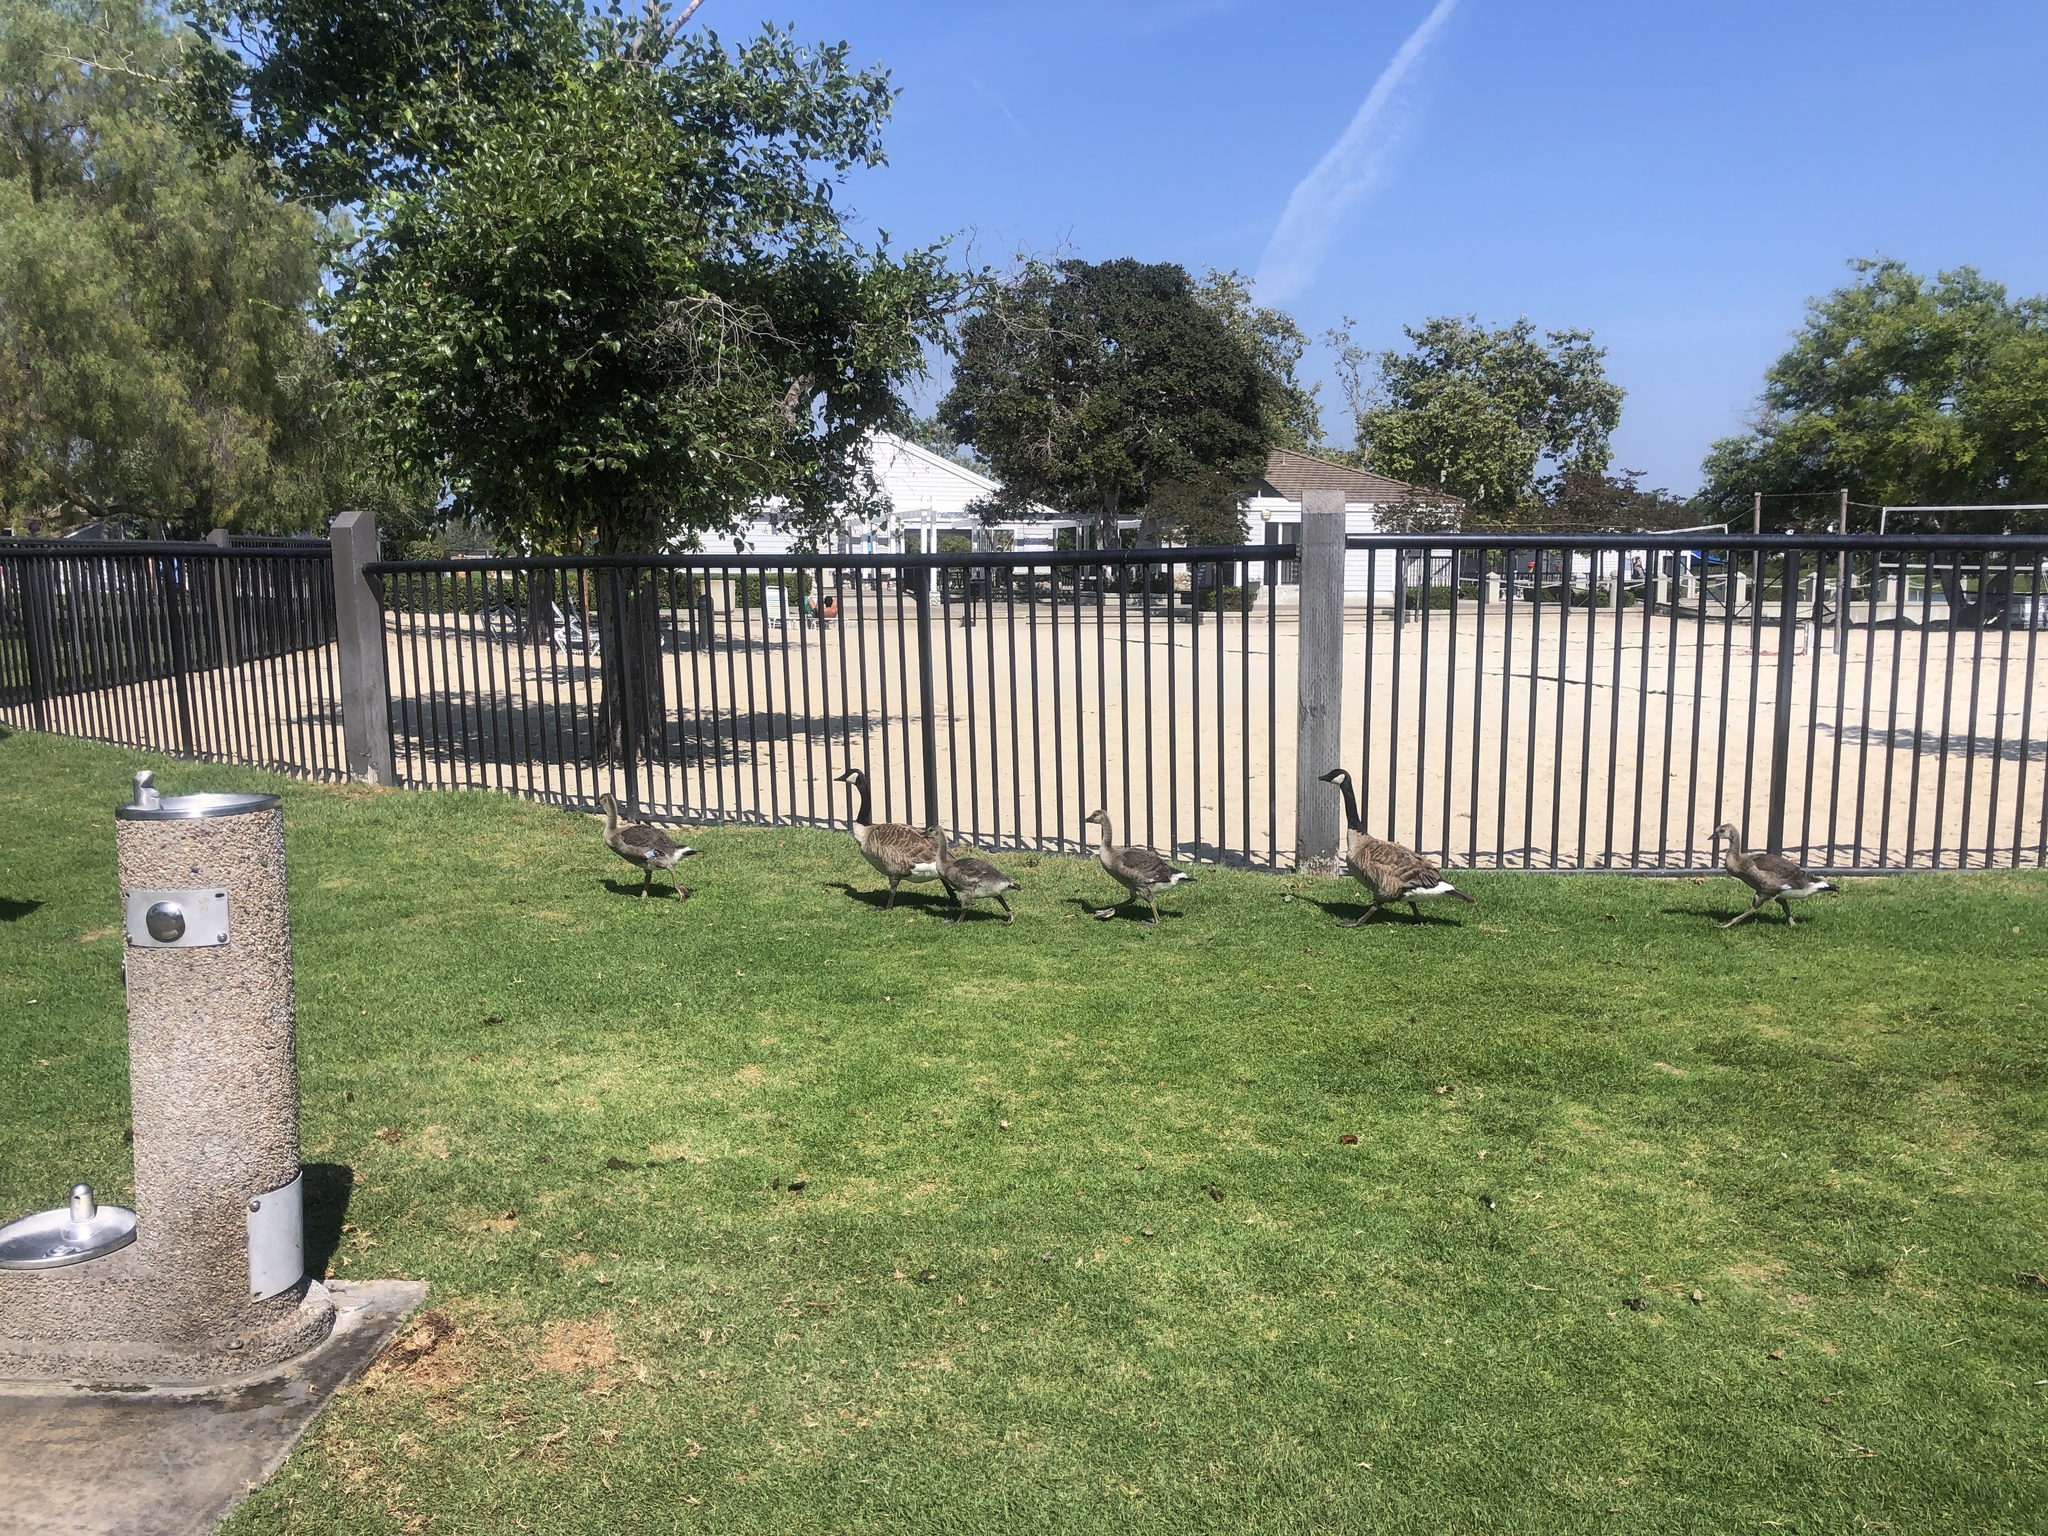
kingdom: Animalia
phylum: Chordata
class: Aves
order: Anseriformes
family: Anatidae
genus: Branta
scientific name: Branta canadensis
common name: Canada goose
